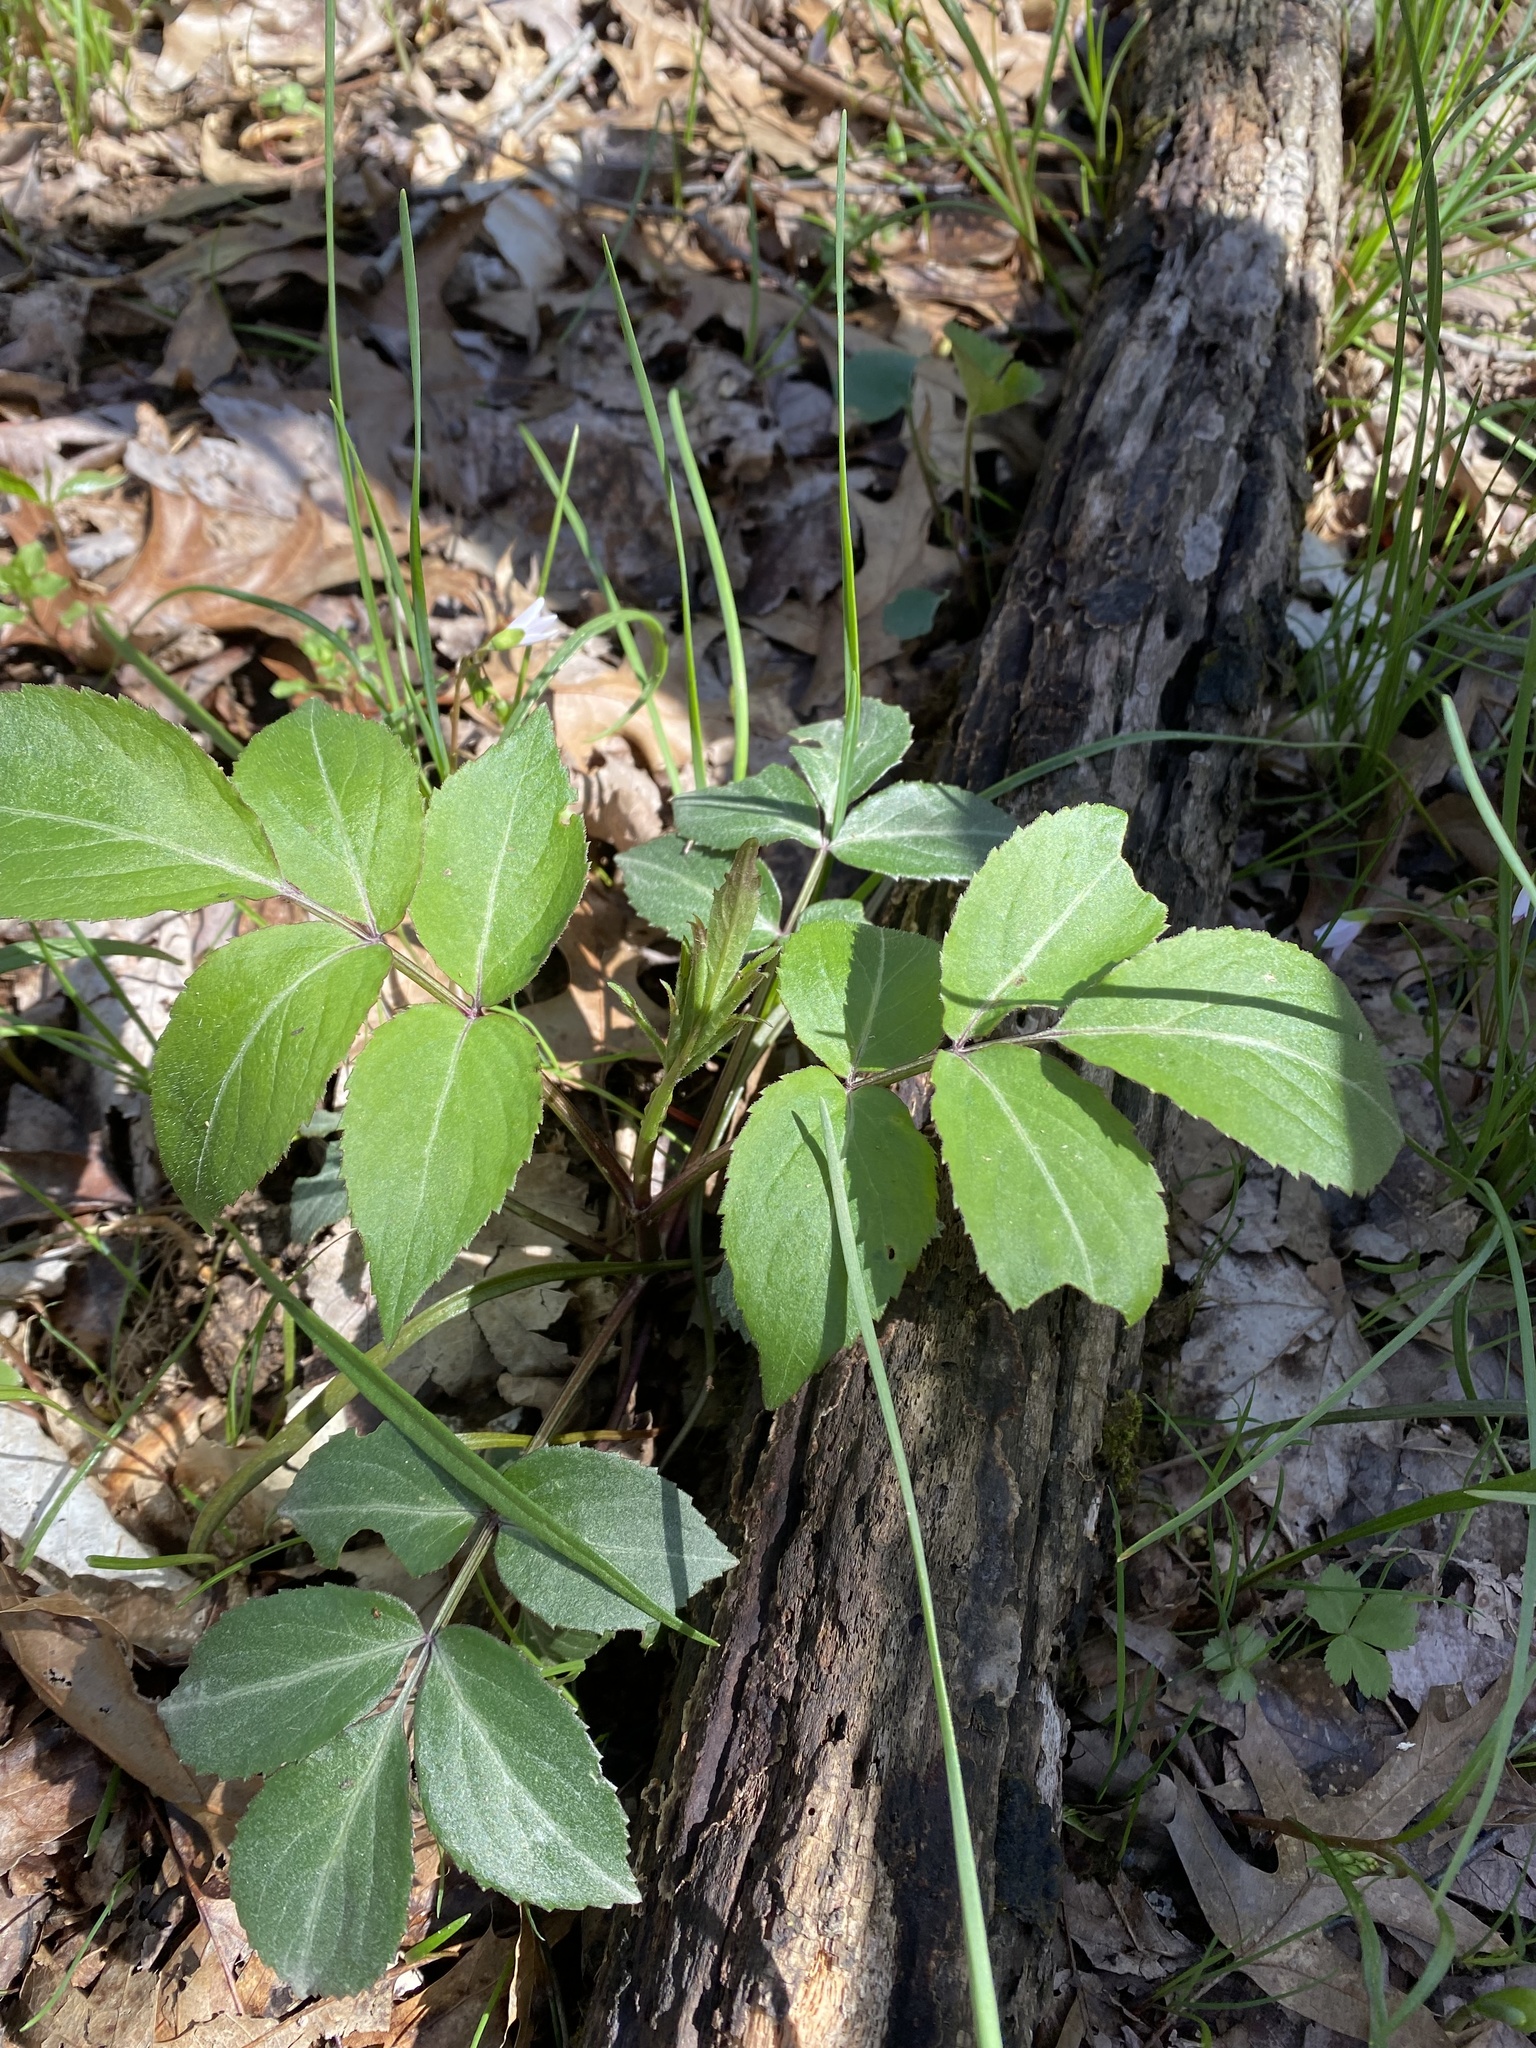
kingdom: Plantae
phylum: Tracheophyta
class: Magnoliopsida
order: Dipsacales
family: Viburnaceae
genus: Sambucus
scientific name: Sambucus canadensis
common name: American elder
